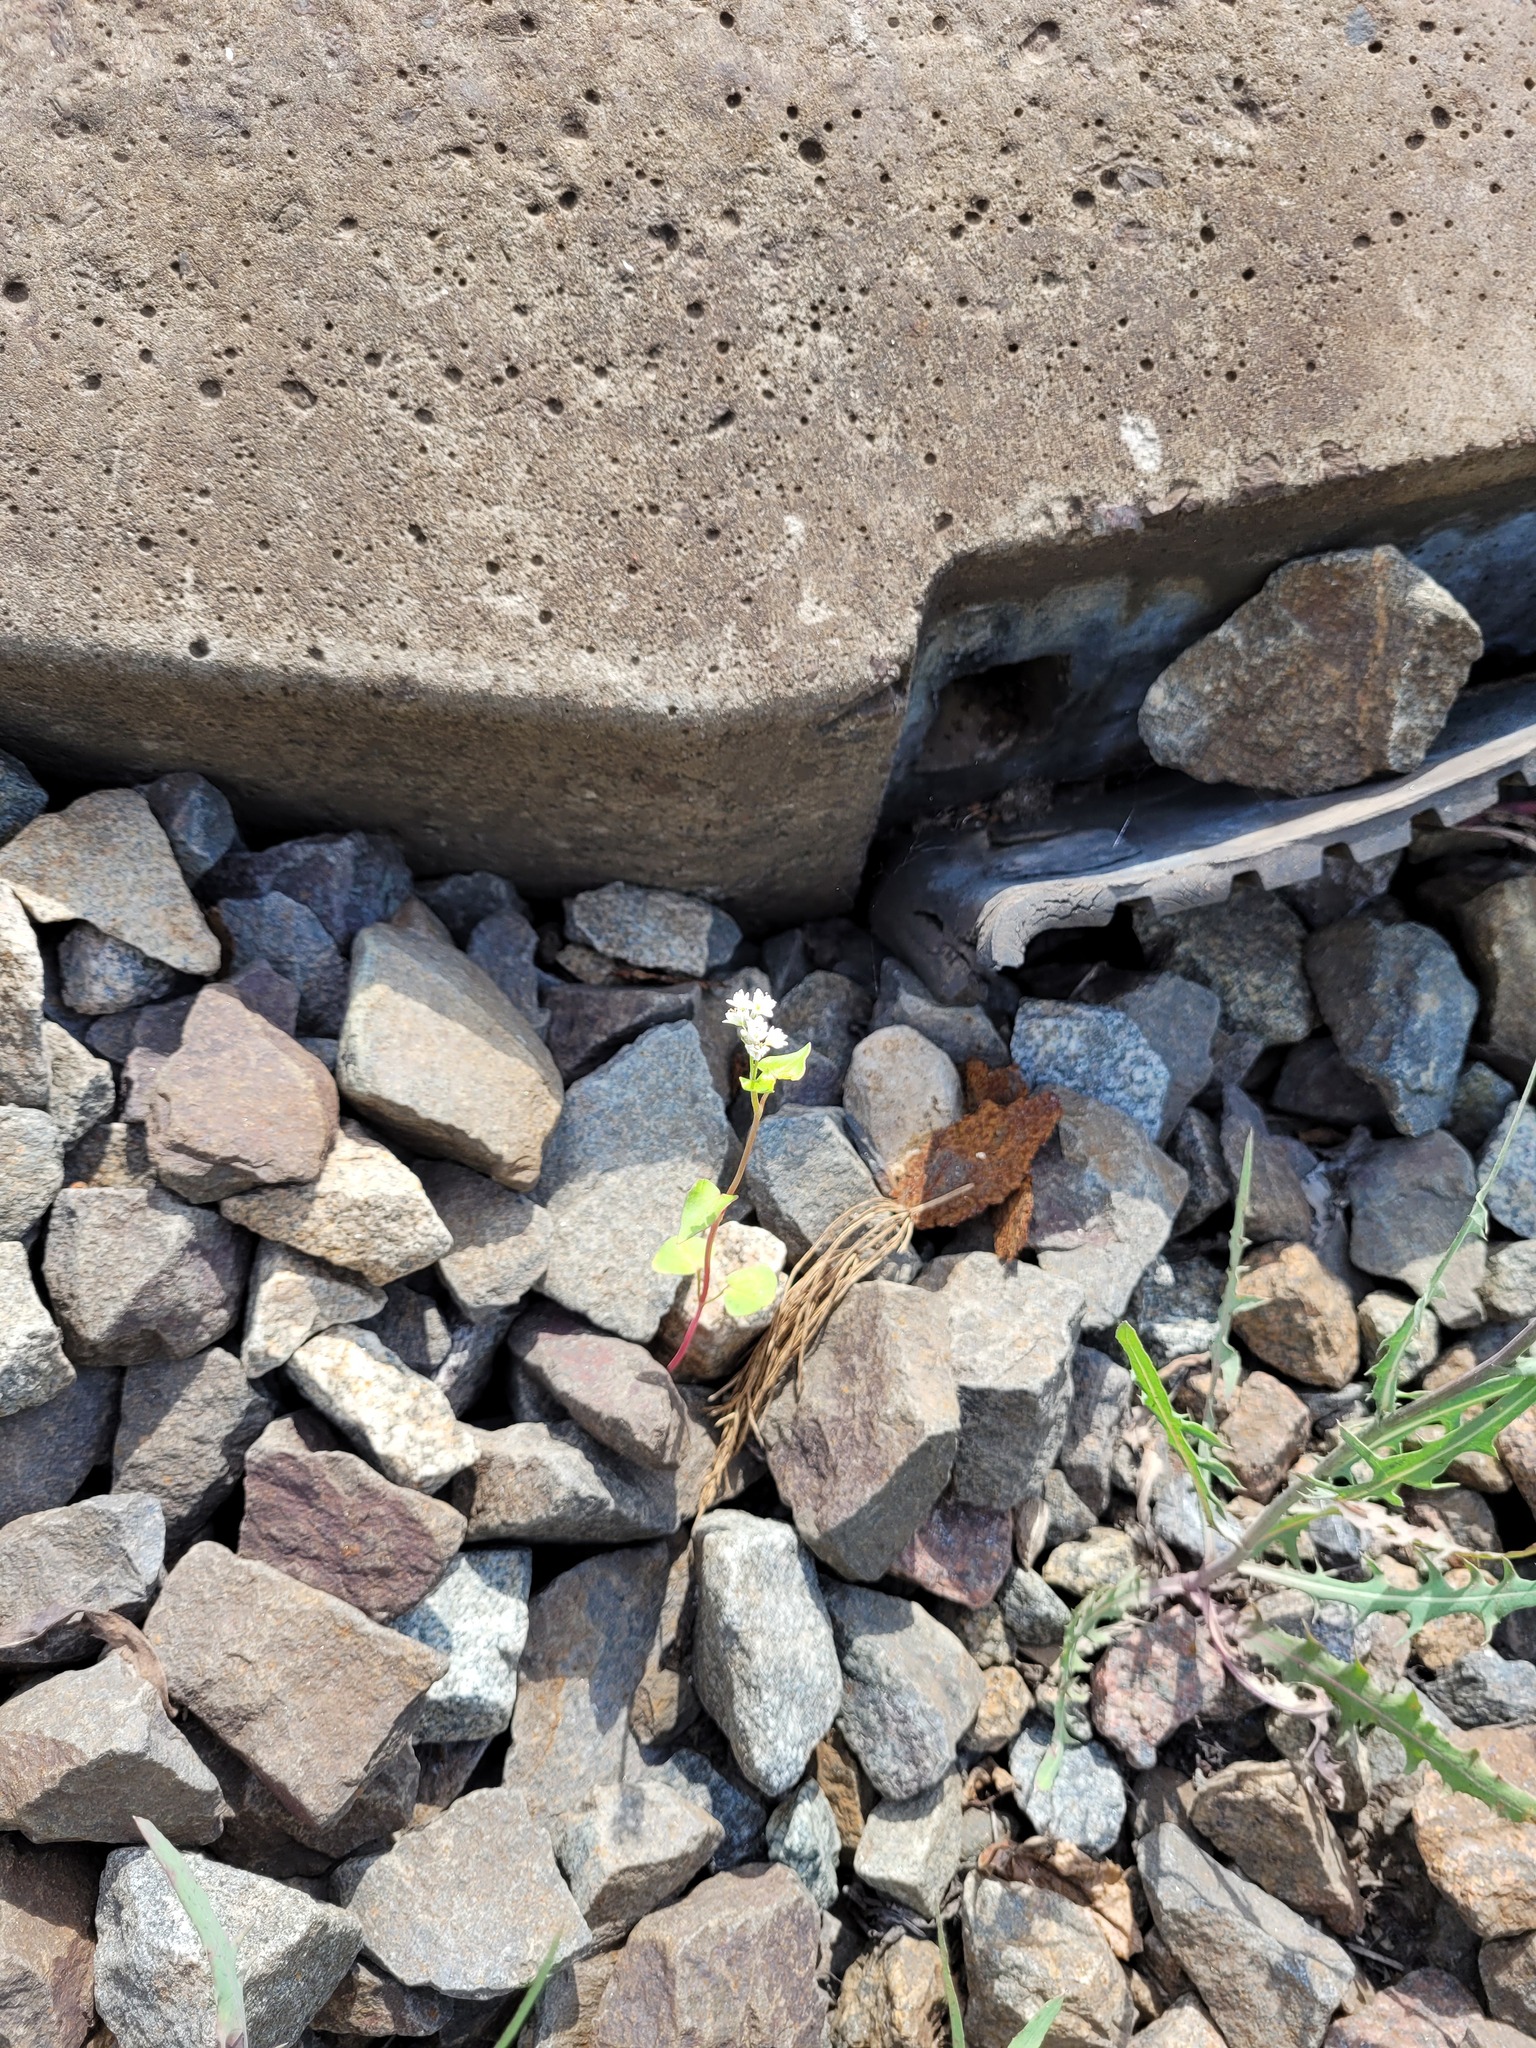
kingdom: Plantae
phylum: Tracheophyta
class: Magnoliopsida
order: Caryophyllales
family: Polygonaceae
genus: Fagopyrum
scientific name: Fagopyrum esculentum
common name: Buckwheat
